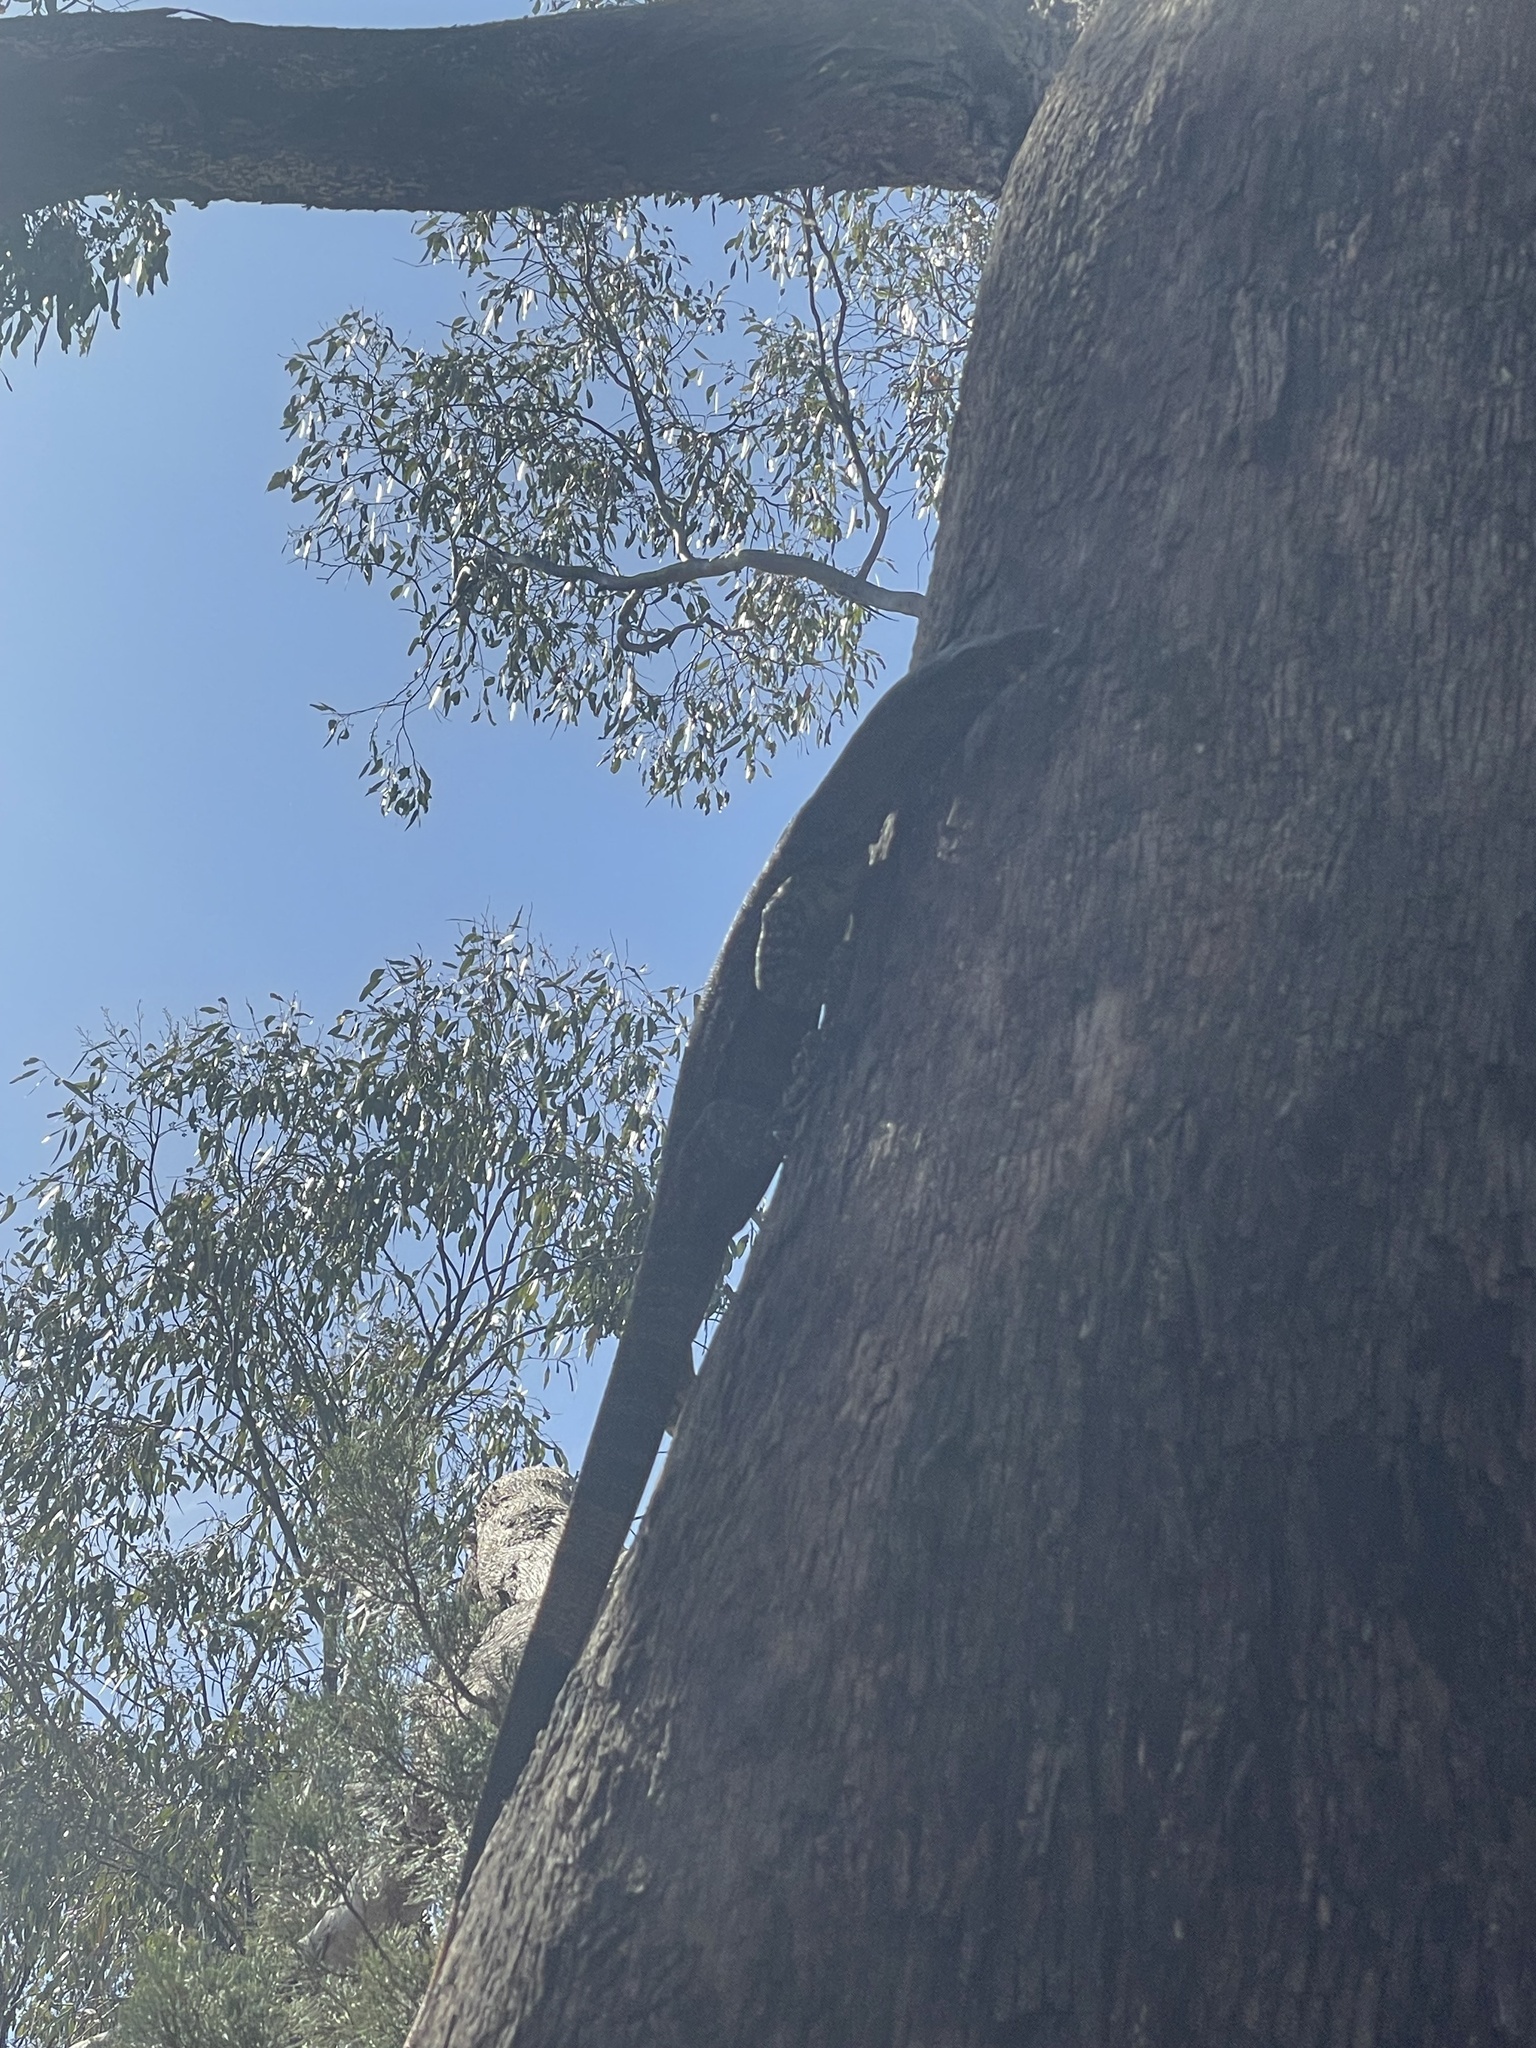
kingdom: Animalia
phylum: Chordata
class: Squamata
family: Varanidae
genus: Varanus
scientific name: Varanus varius
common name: Lace monitor
